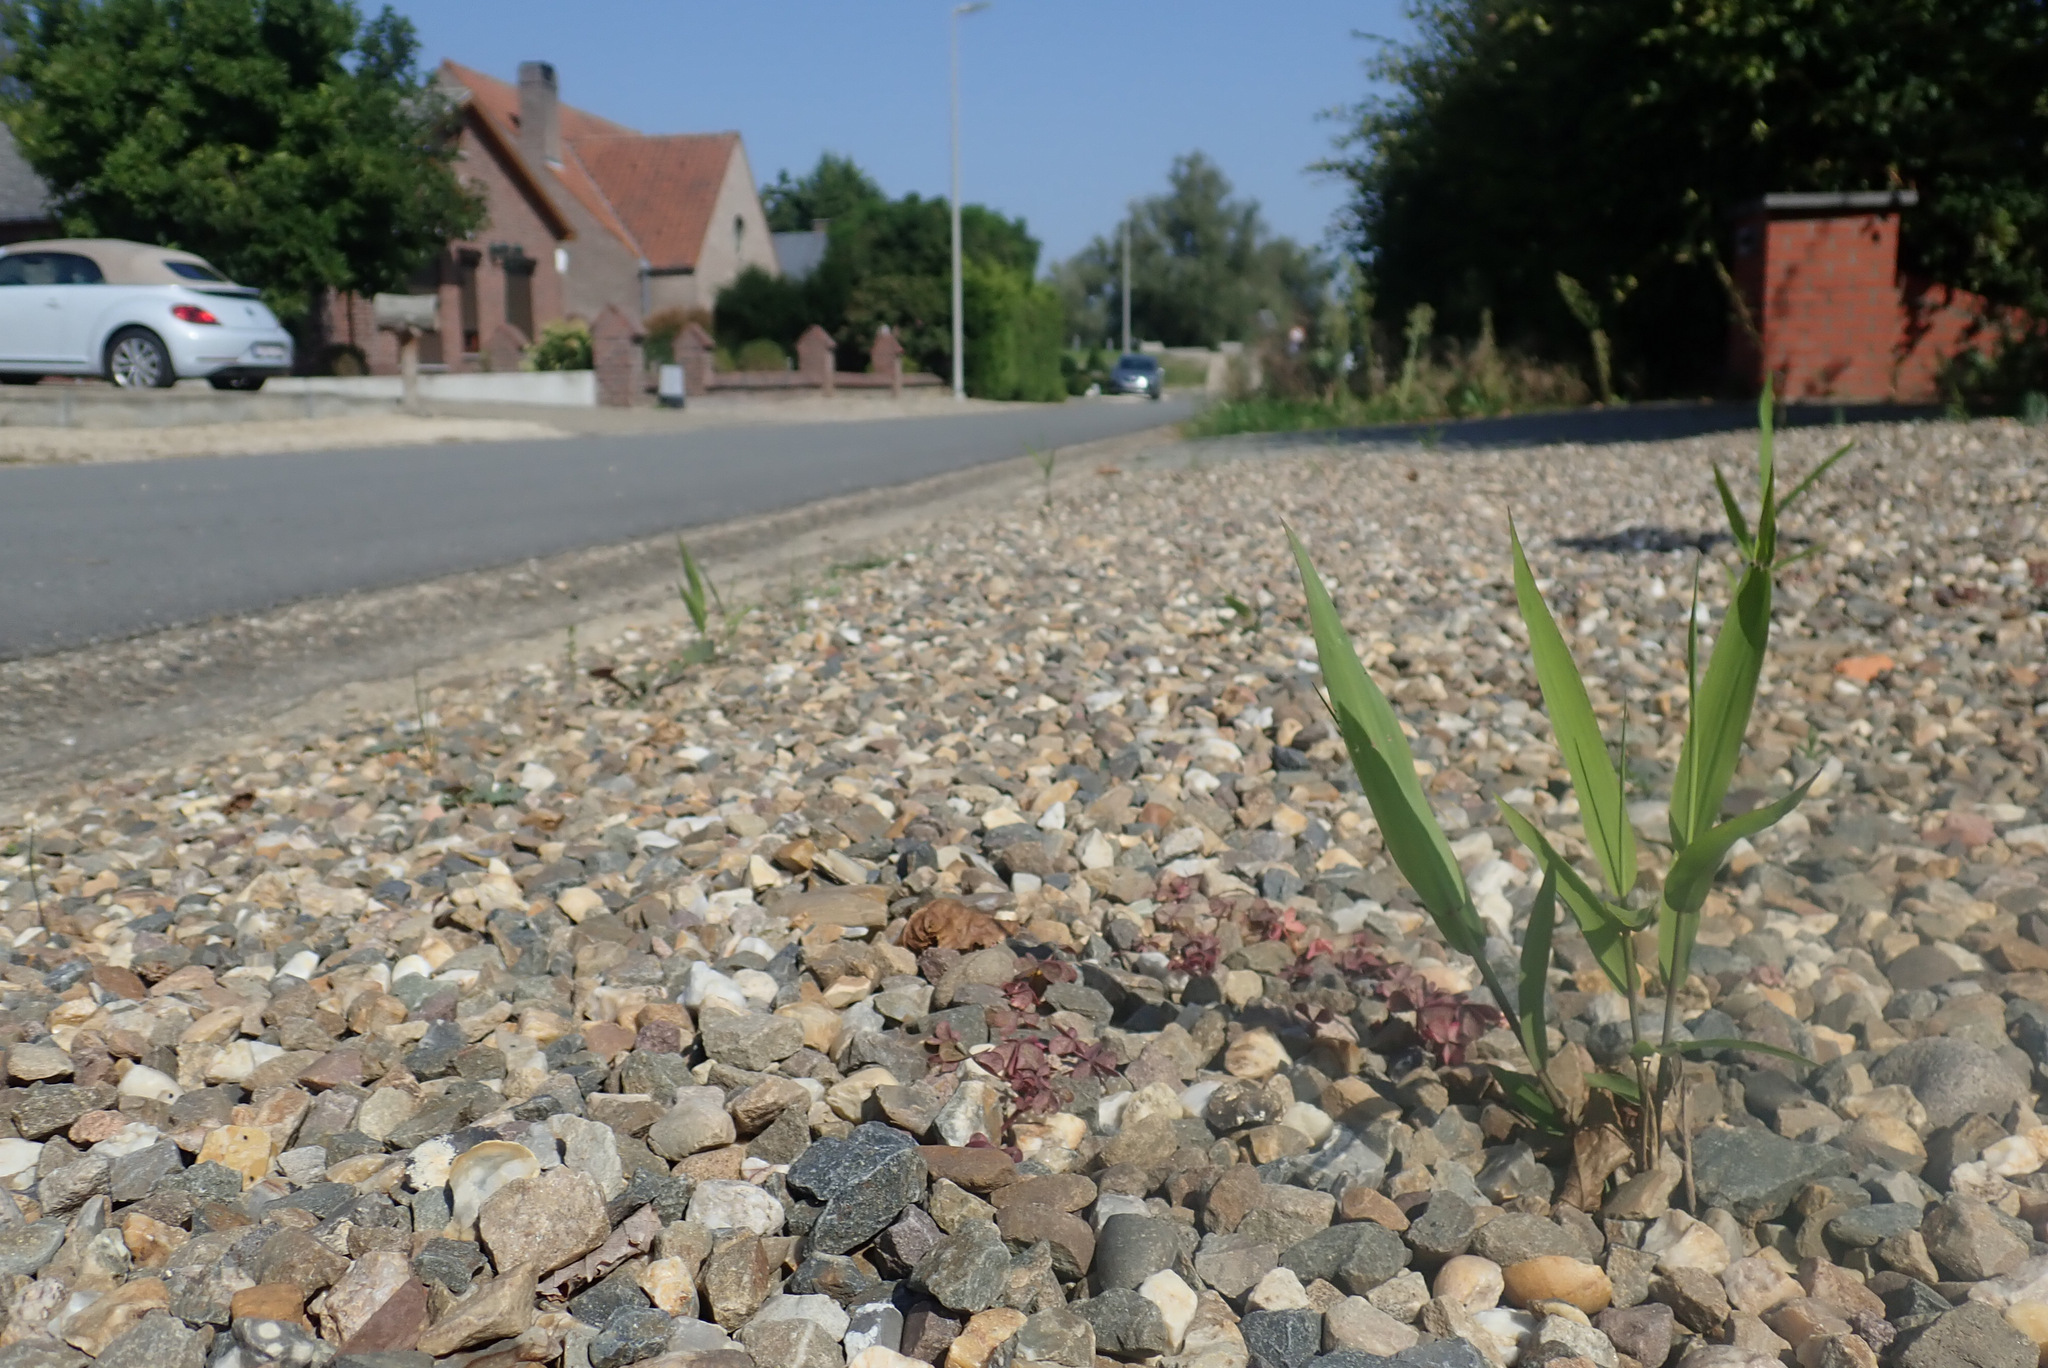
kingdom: Plantae
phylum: Tracheophyta
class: Liliopsida
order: Poales
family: Poaceae
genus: Chasmanthium
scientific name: Chasmanthium latifolium
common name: Broad-leaved chasmanthium
